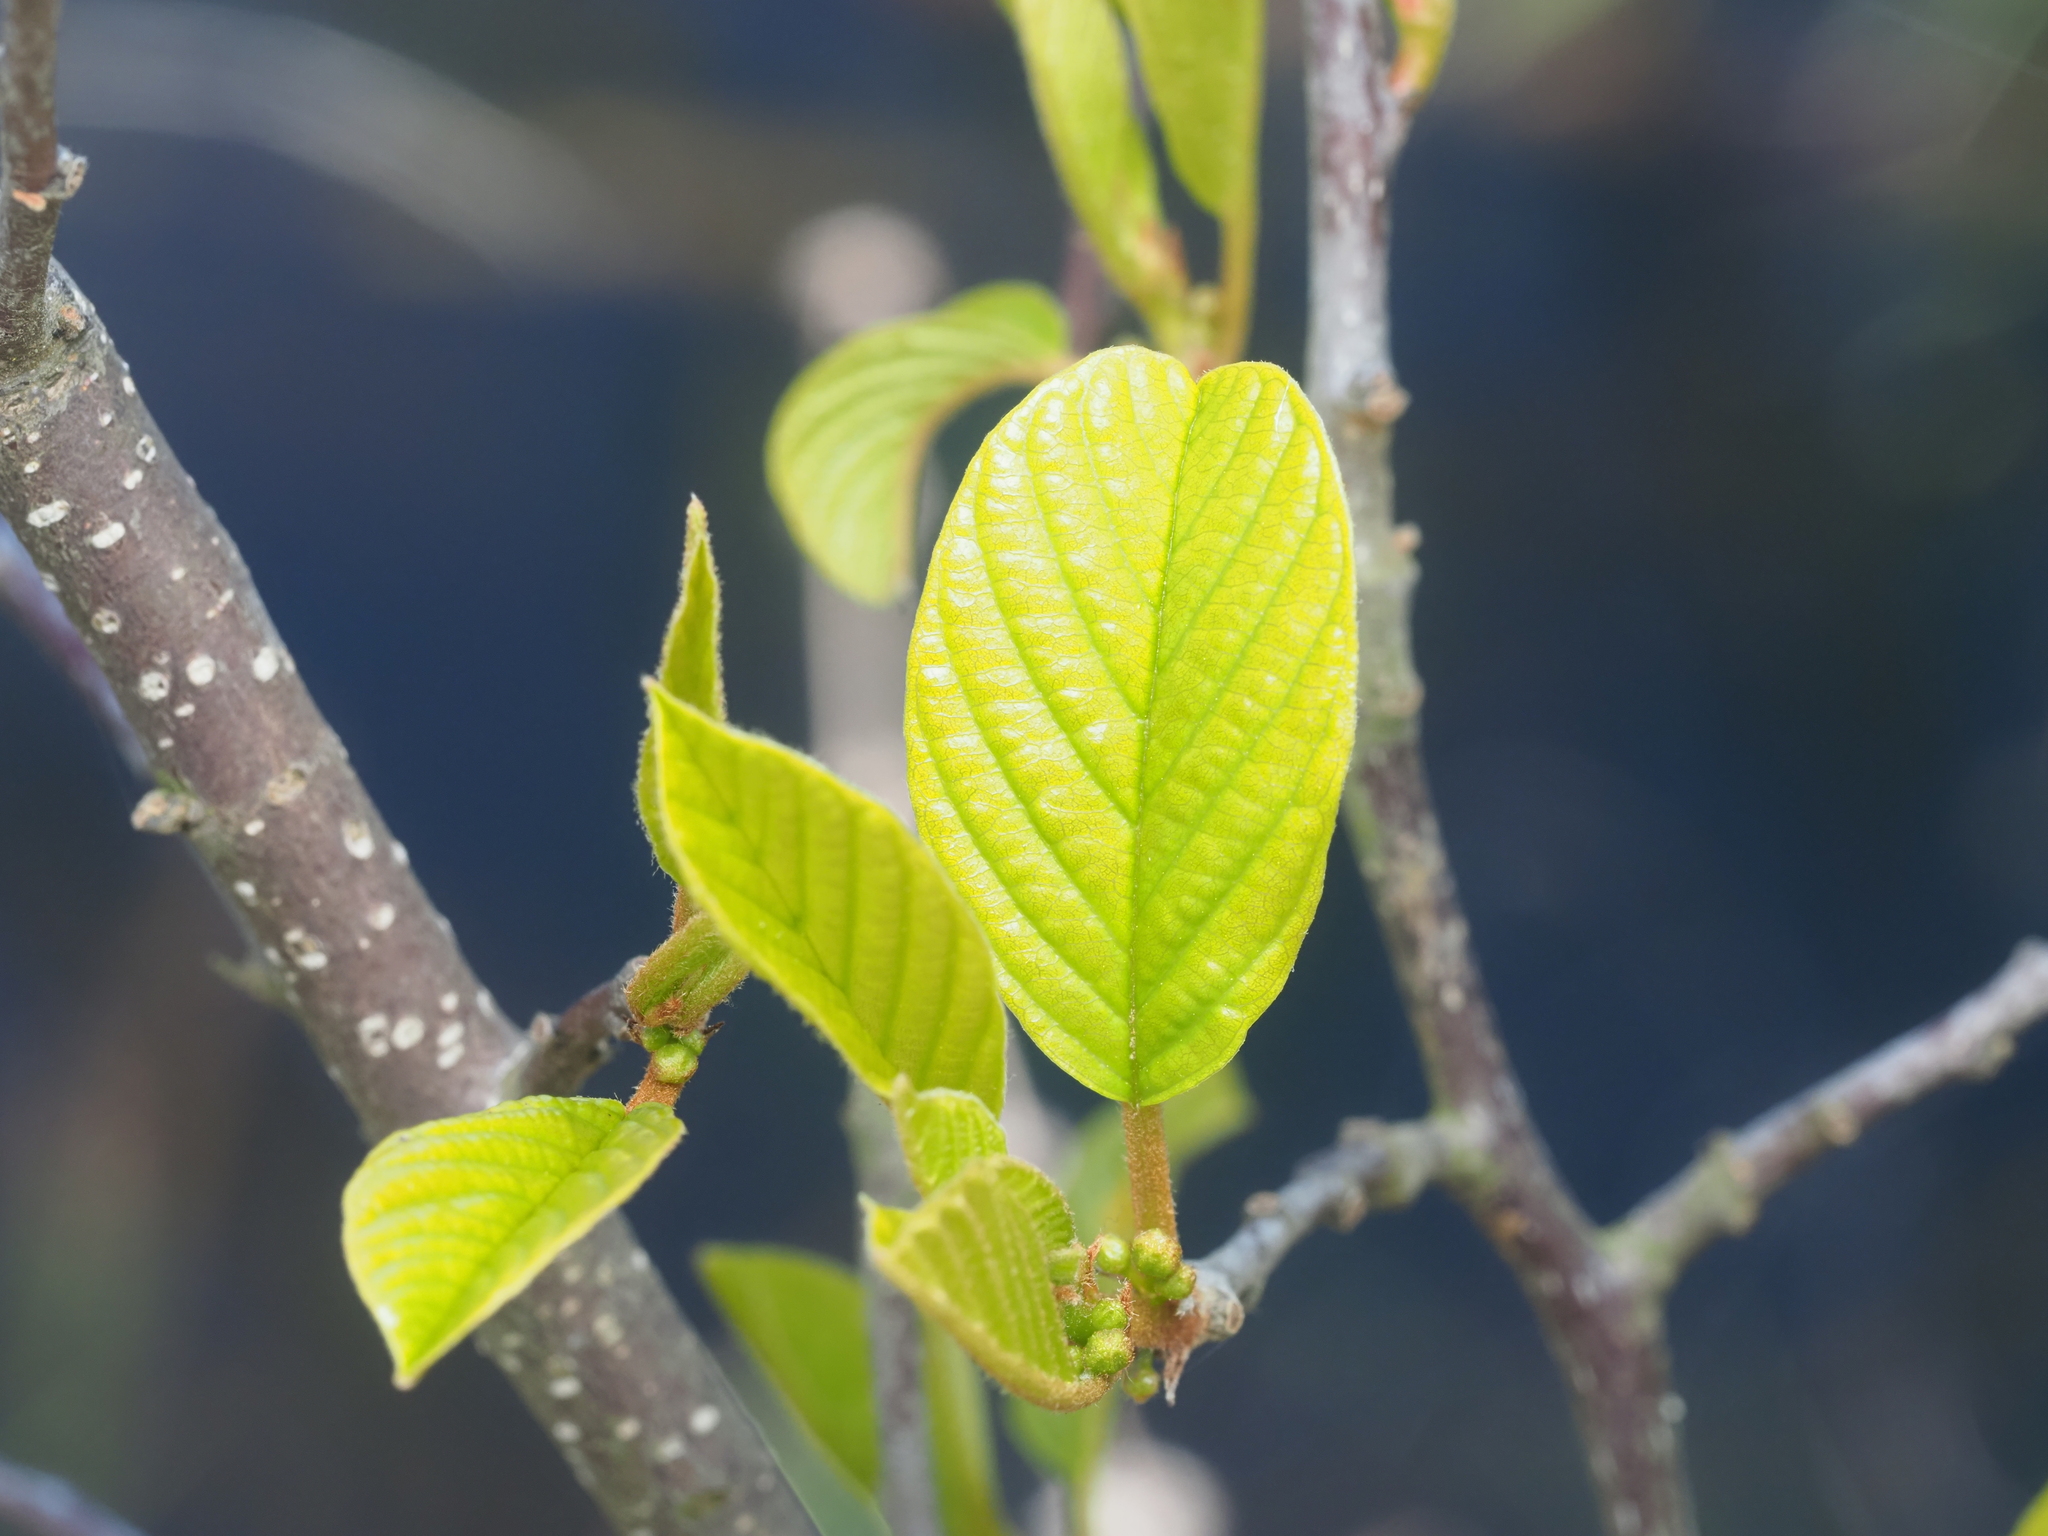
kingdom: Plantae
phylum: Tracheophyta
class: Magnoliopsida
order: Rosales
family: Rhamnaceae
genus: Frangula
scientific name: Frangula alnus
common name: Alder buckthorn
